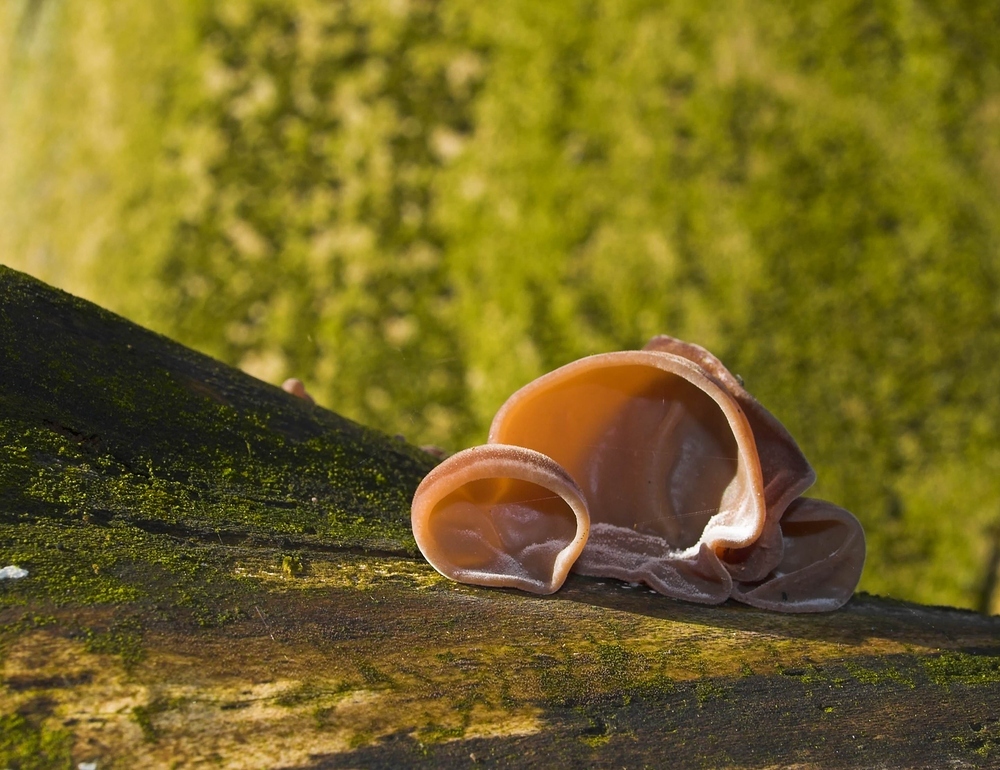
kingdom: Fungi
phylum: Basidiomycota
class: Agaricomycetes
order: Auriculariales
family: Auriculariaceae
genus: Auricularia
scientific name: Auricularia auricula-judae
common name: Jelly ear
